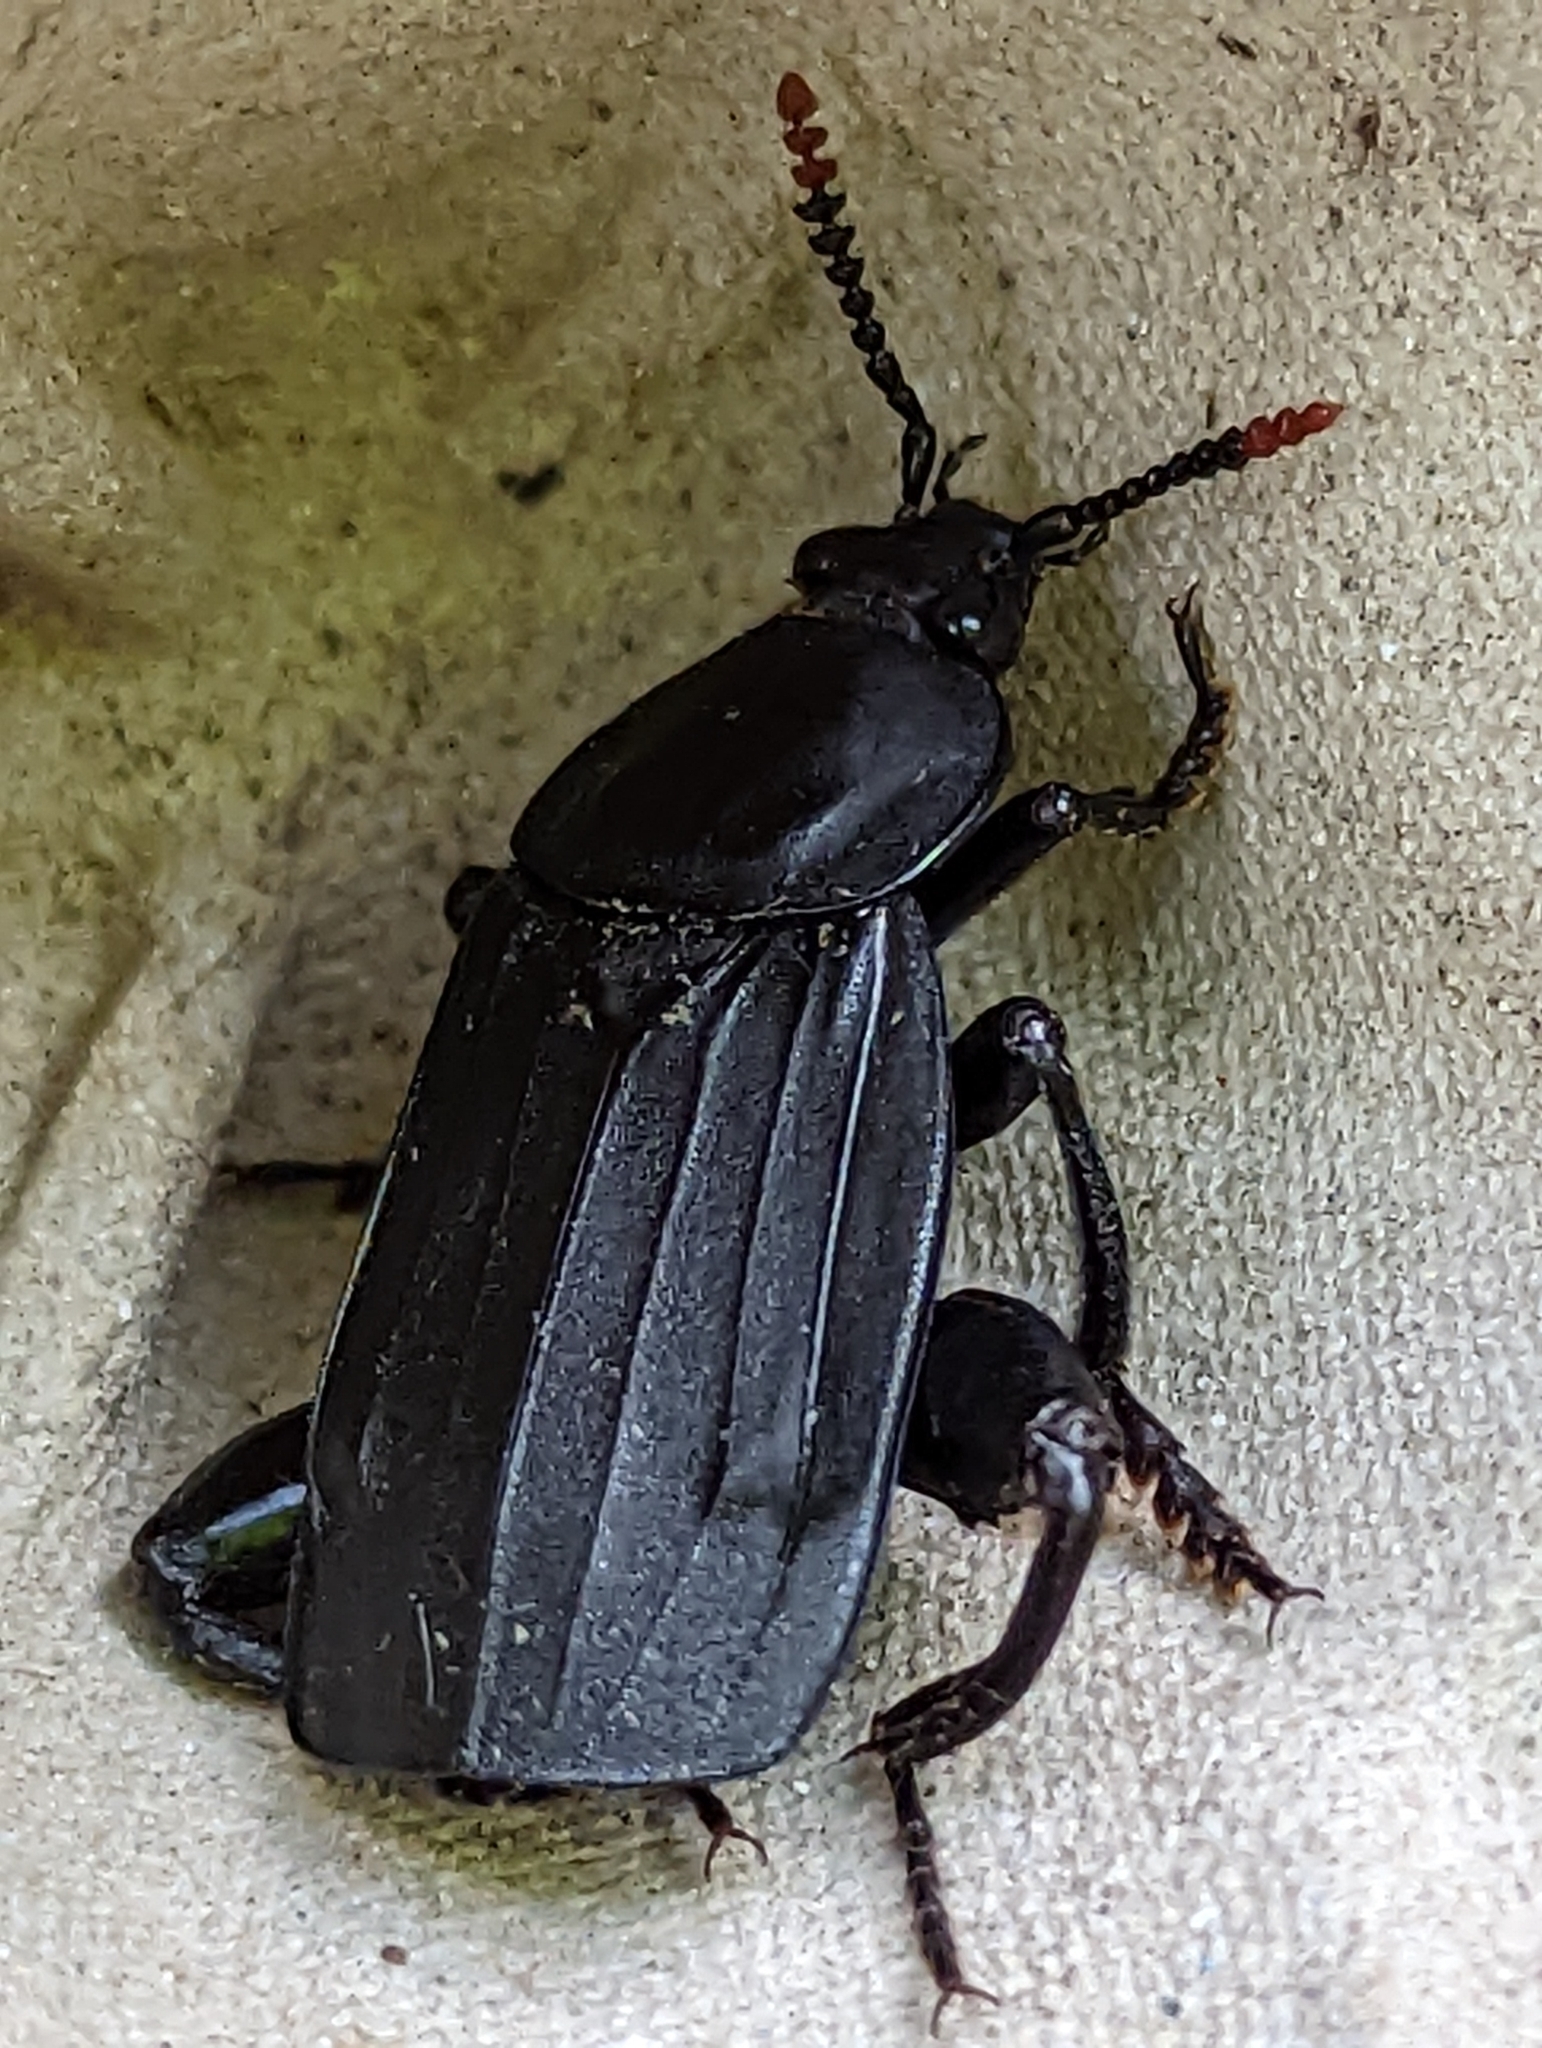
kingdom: Animalia
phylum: Arthropoda
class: Insecta
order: Coleoptera
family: Staphylinidae
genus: Necrodes
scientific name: Necrodes littoralis
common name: Shore sexton beetle
